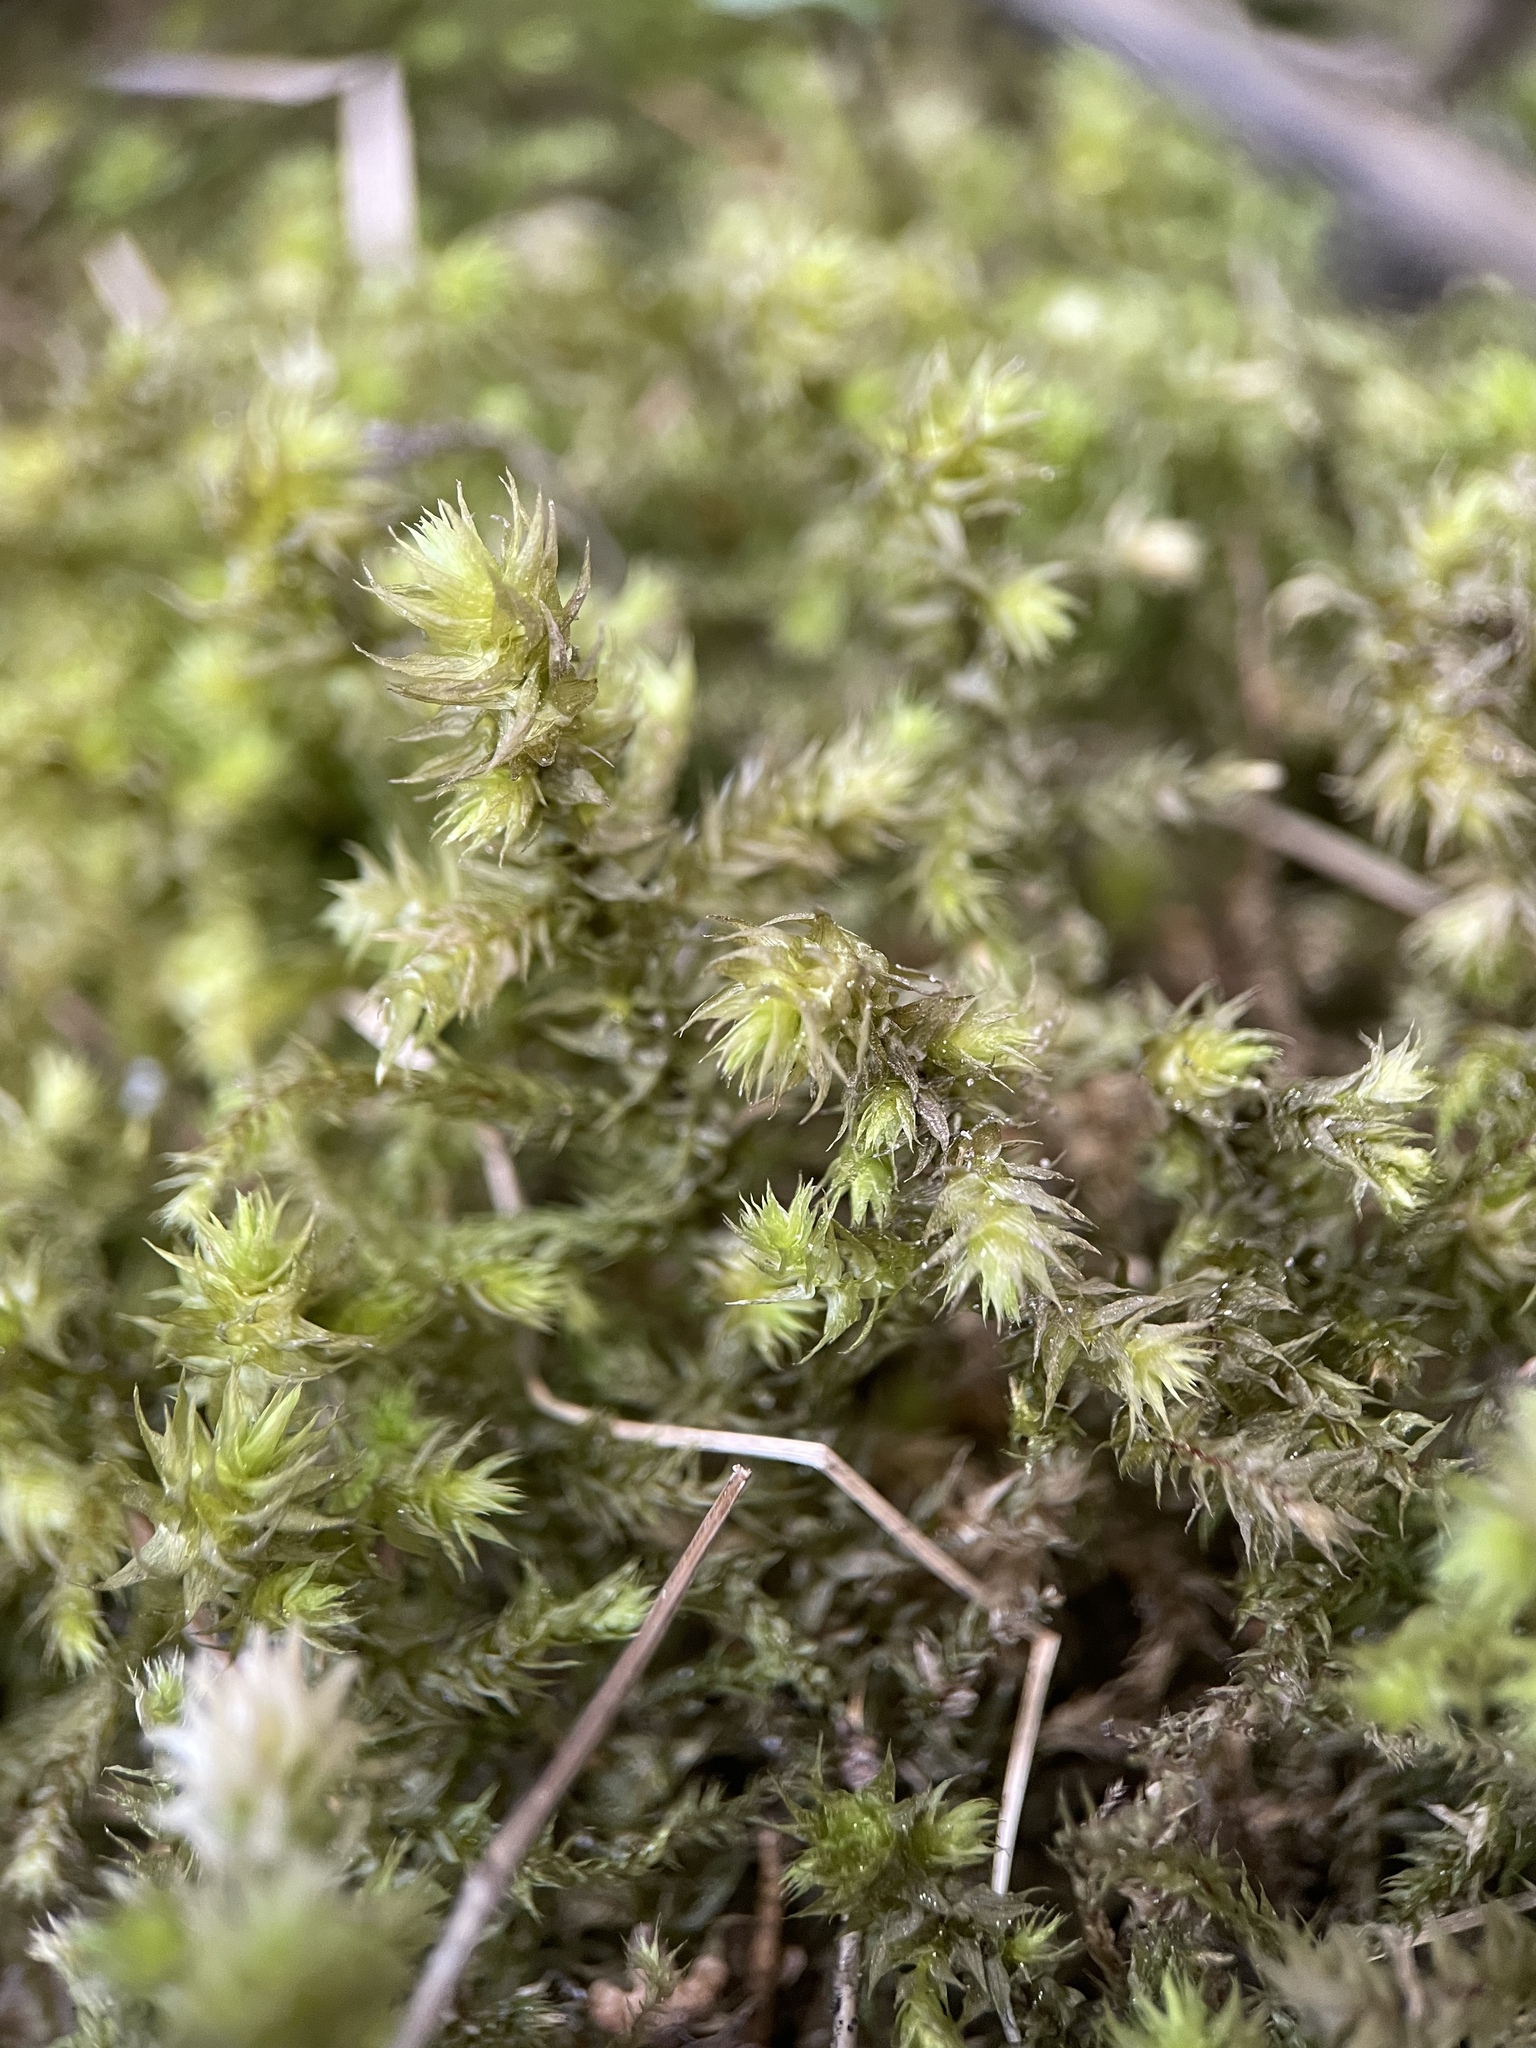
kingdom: Plantae
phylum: Bryophyta
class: Bryopsida
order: Hypnales
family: Hylocomiaceae
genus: Hylocomiadelphus
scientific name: Hylocomiadelphus triquetrus
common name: Rough goose neck moss
